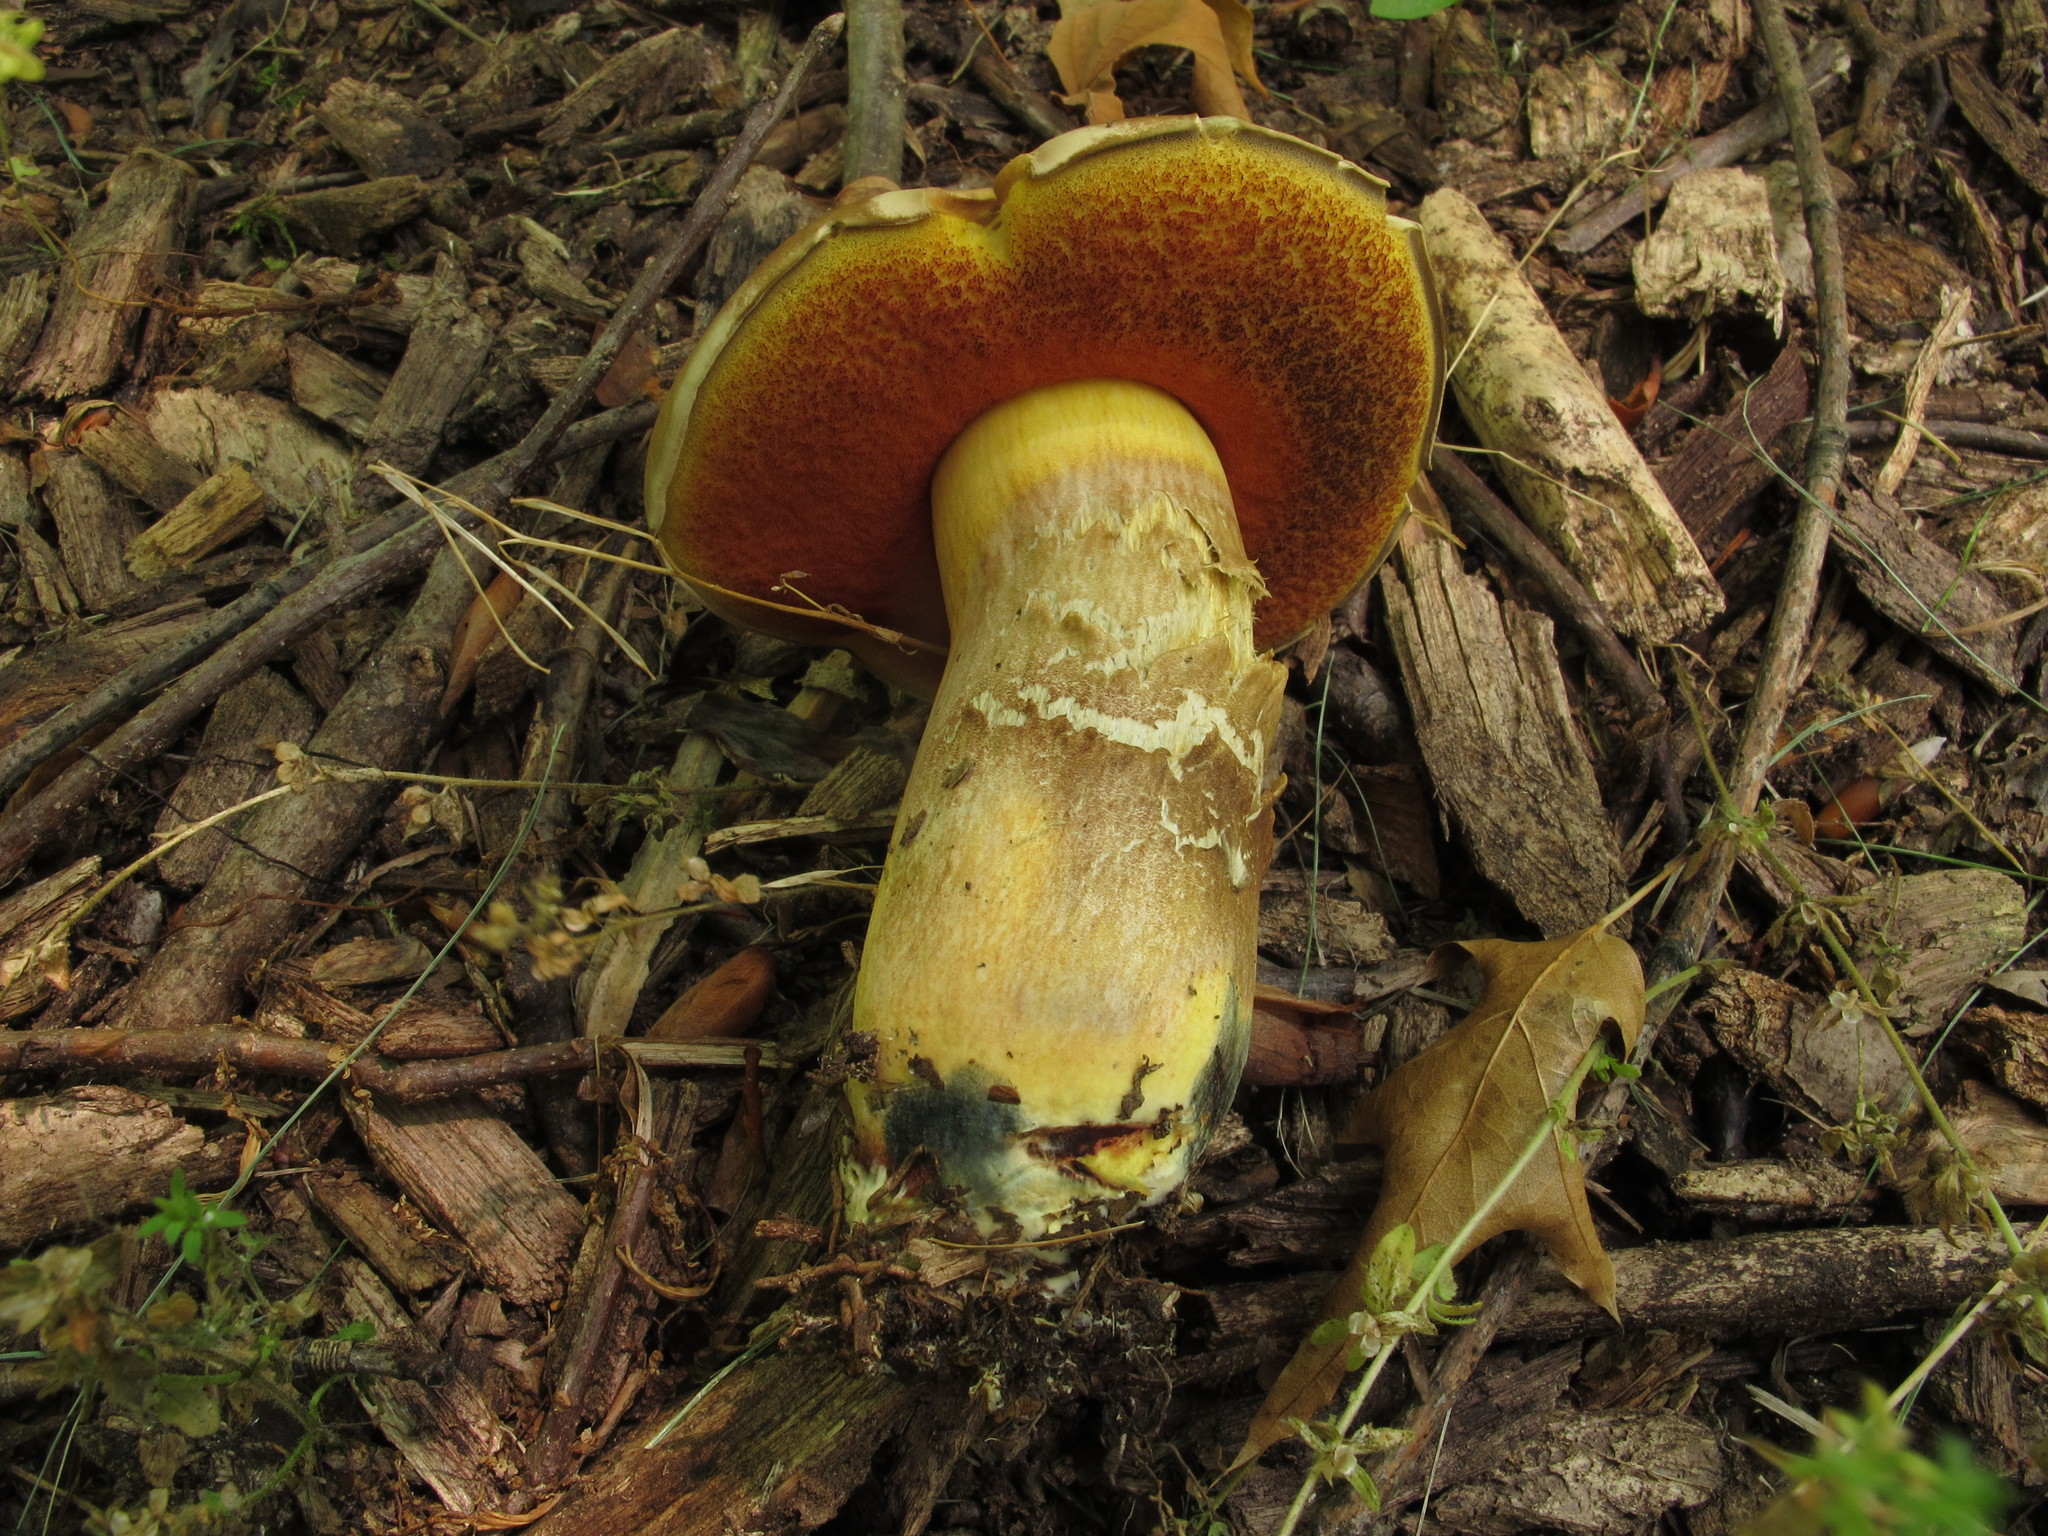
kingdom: Fungi
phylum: Basidiomycota
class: Agaricomycetes
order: Boletales
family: Boletaceae
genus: Boletus
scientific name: Boletus subvelutipes
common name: Red-mouth bolete
